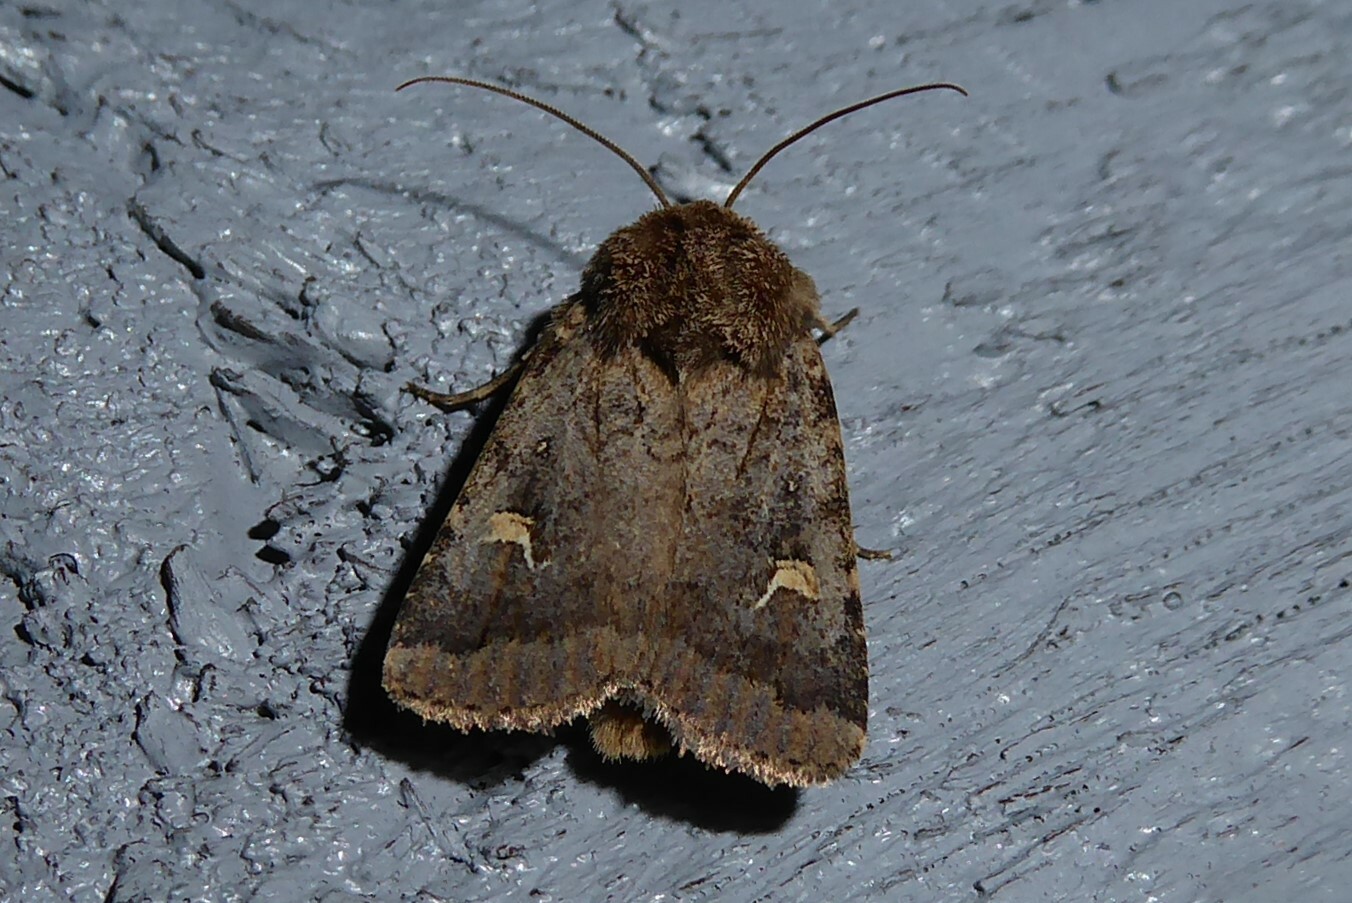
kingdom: Animalia
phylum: Arthropoda
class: Insecta
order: Lepidoptera
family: Noctuidae
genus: Proteuxoa
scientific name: Proteuxoa tetronycha
